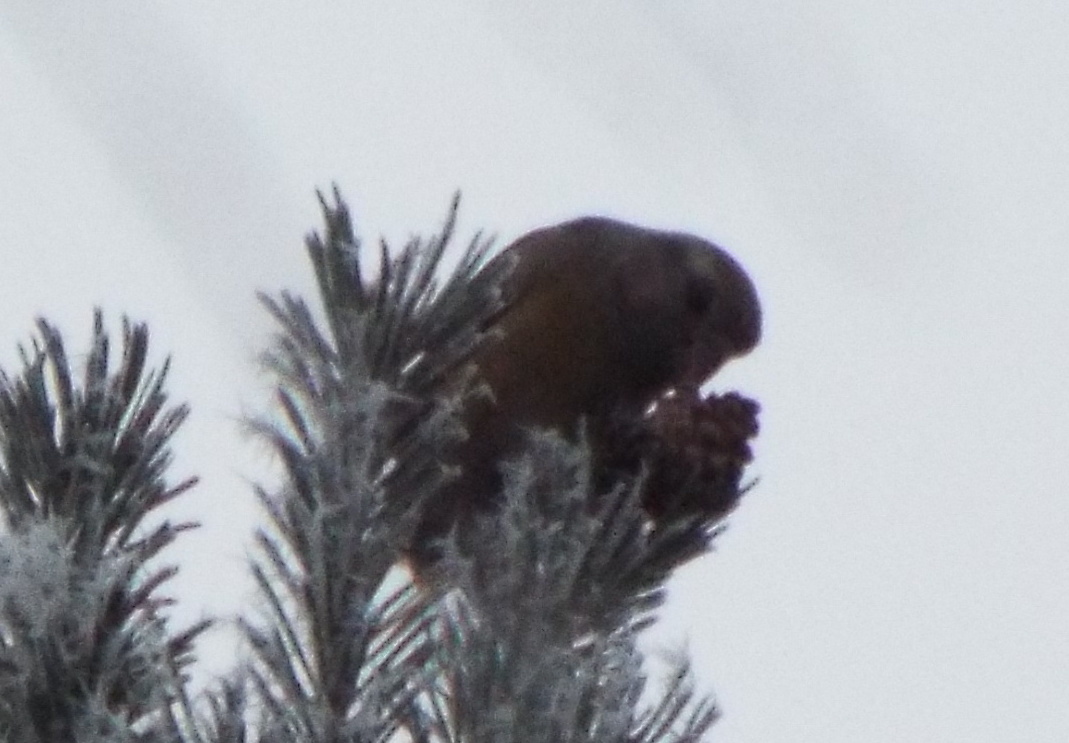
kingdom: Animalia
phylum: Chordata
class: Aves
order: Passeriformes
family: Fringillidae
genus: Loxia
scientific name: Loxia curvirostra
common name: Red crossbill
